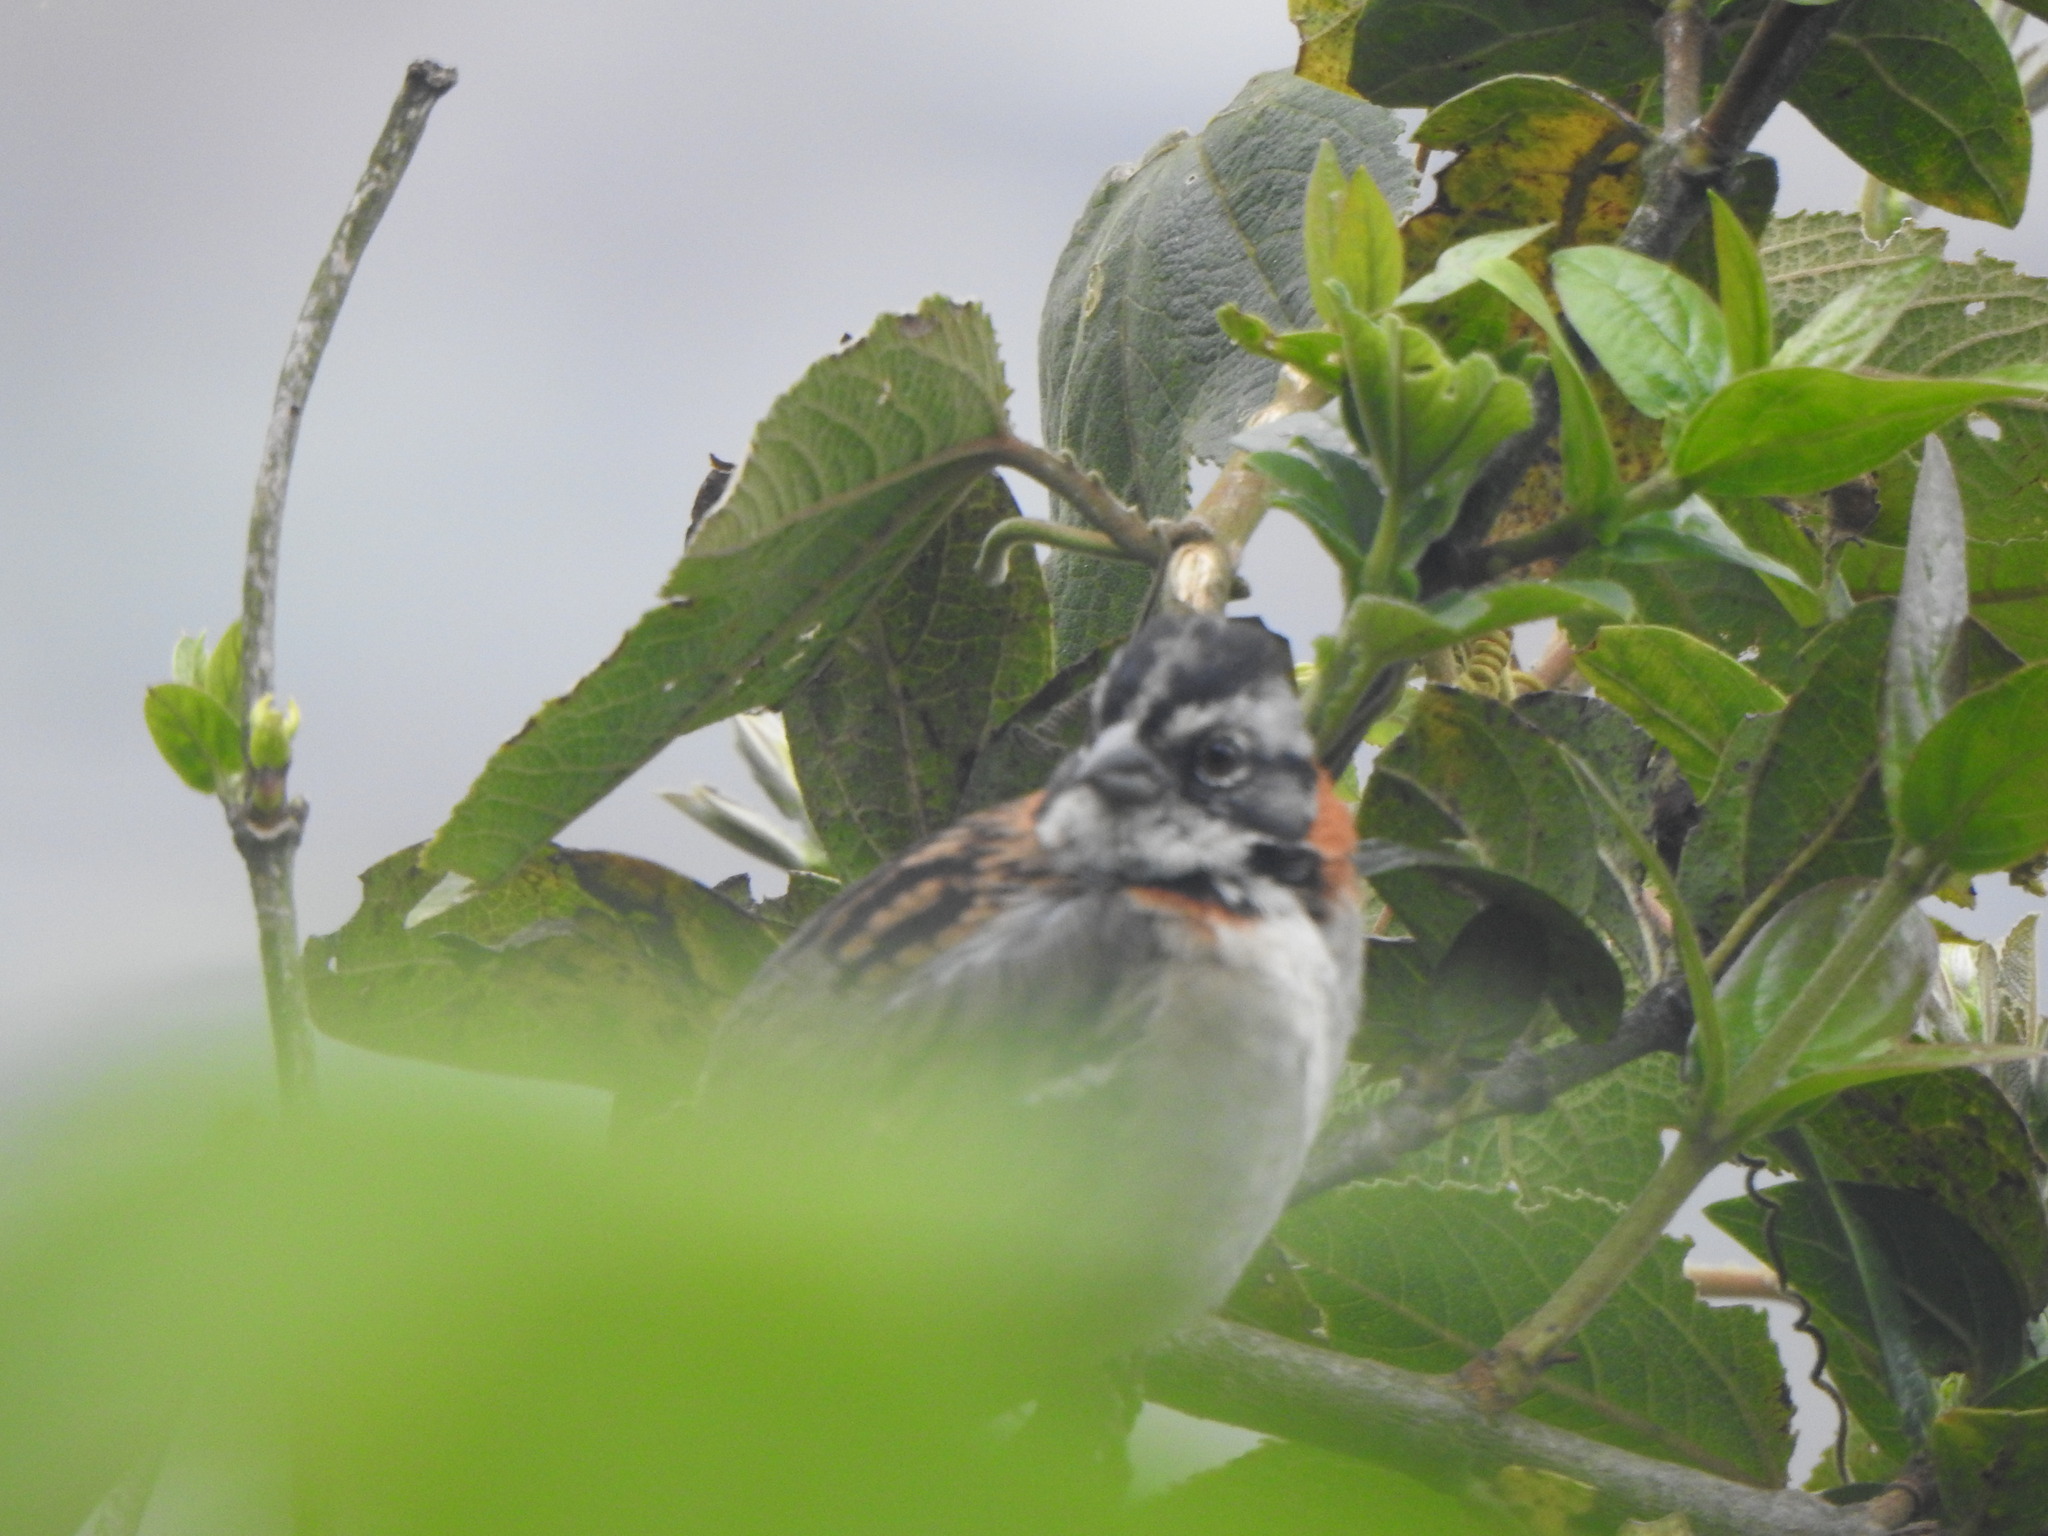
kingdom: Animalia
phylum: Chordata
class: Aves
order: Passeriformes
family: Passerellidae
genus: Zonotrichia
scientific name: Zonotrichia capensis
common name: Rufous-collared sparrow
